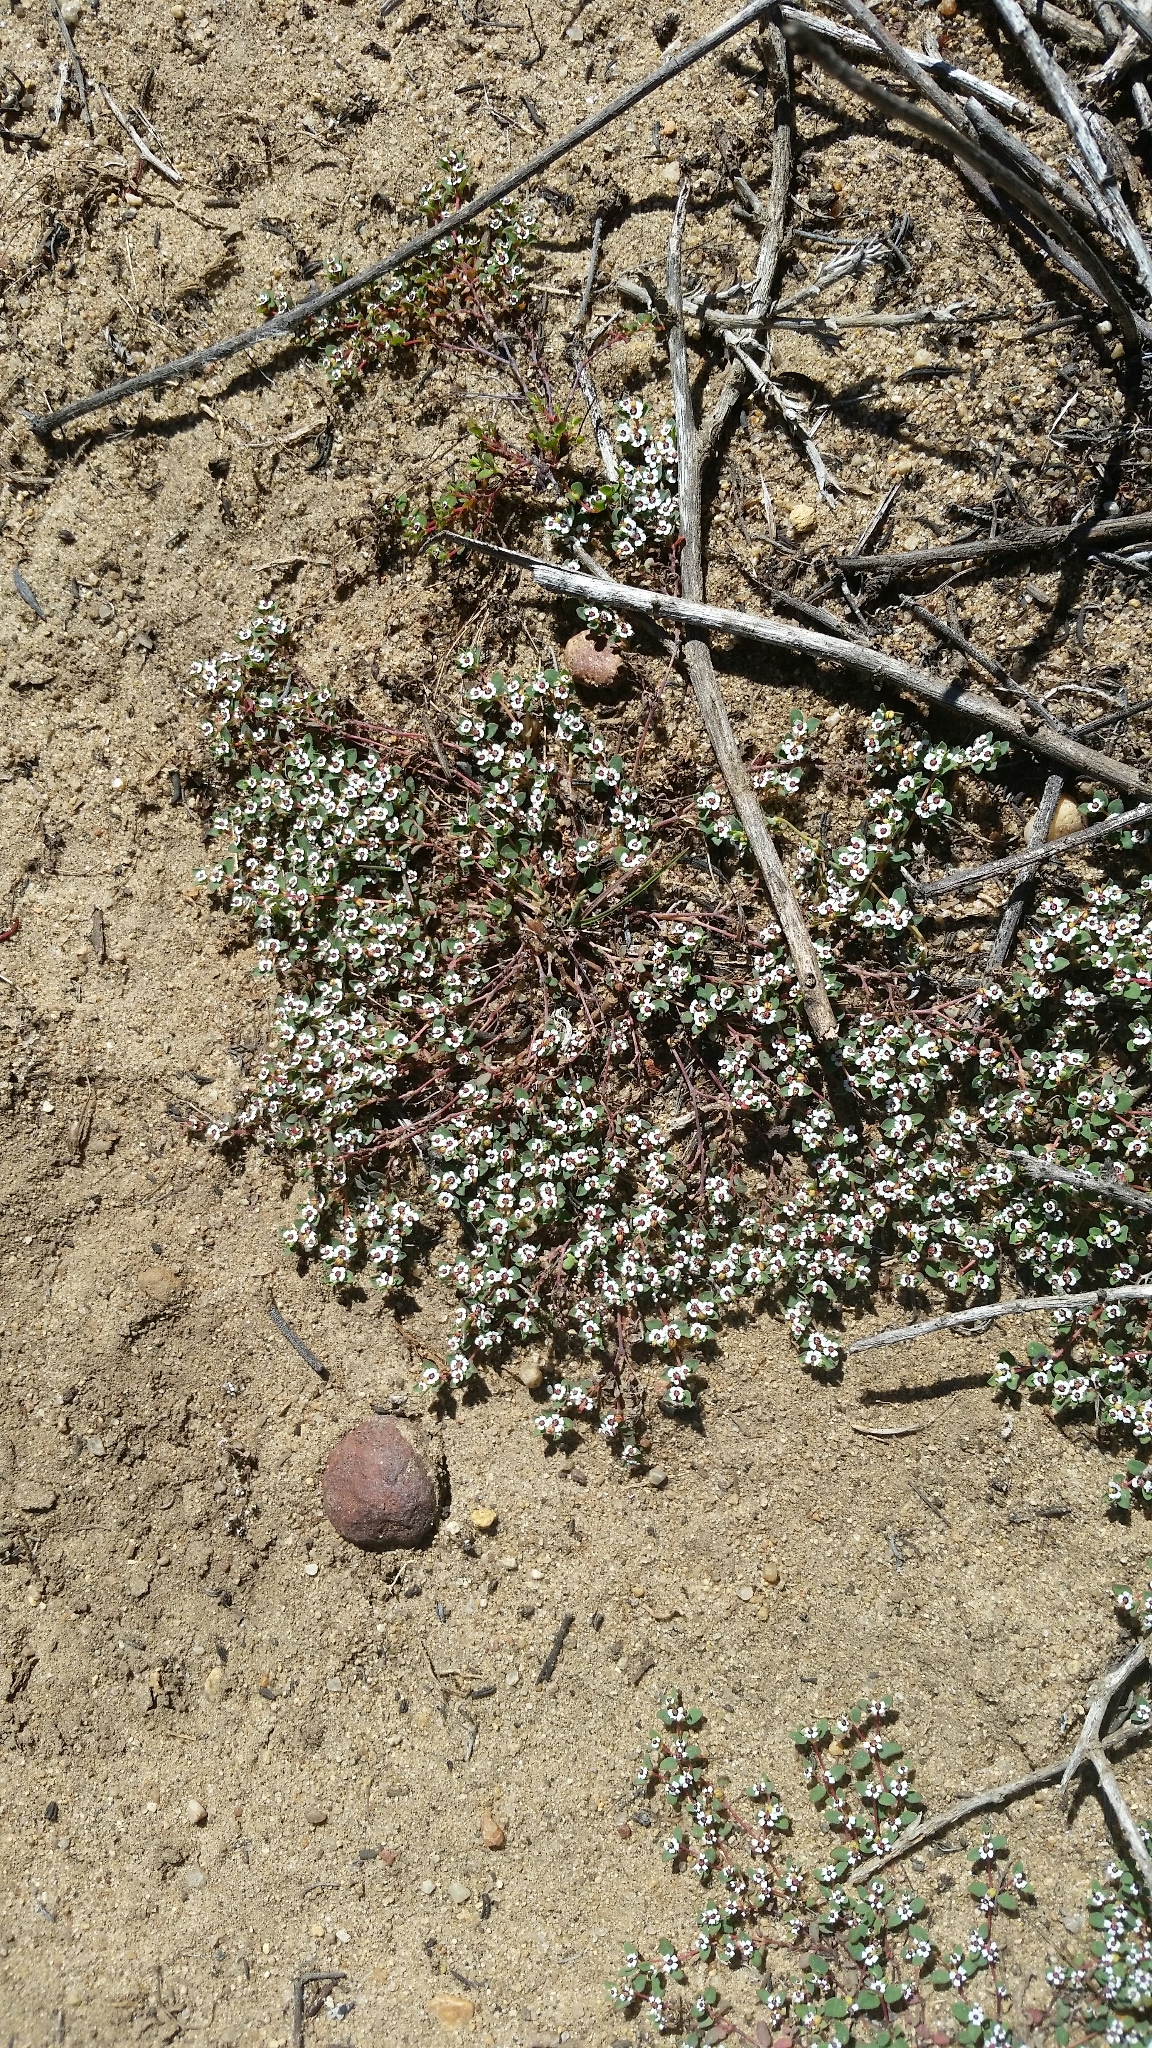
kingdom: Plantae
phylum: Tracheophyta
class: Magnoliopsida
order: Malpighiales
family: Euphorbiaceae
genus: Euphorbia
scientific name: Euphorbia polycarpa
